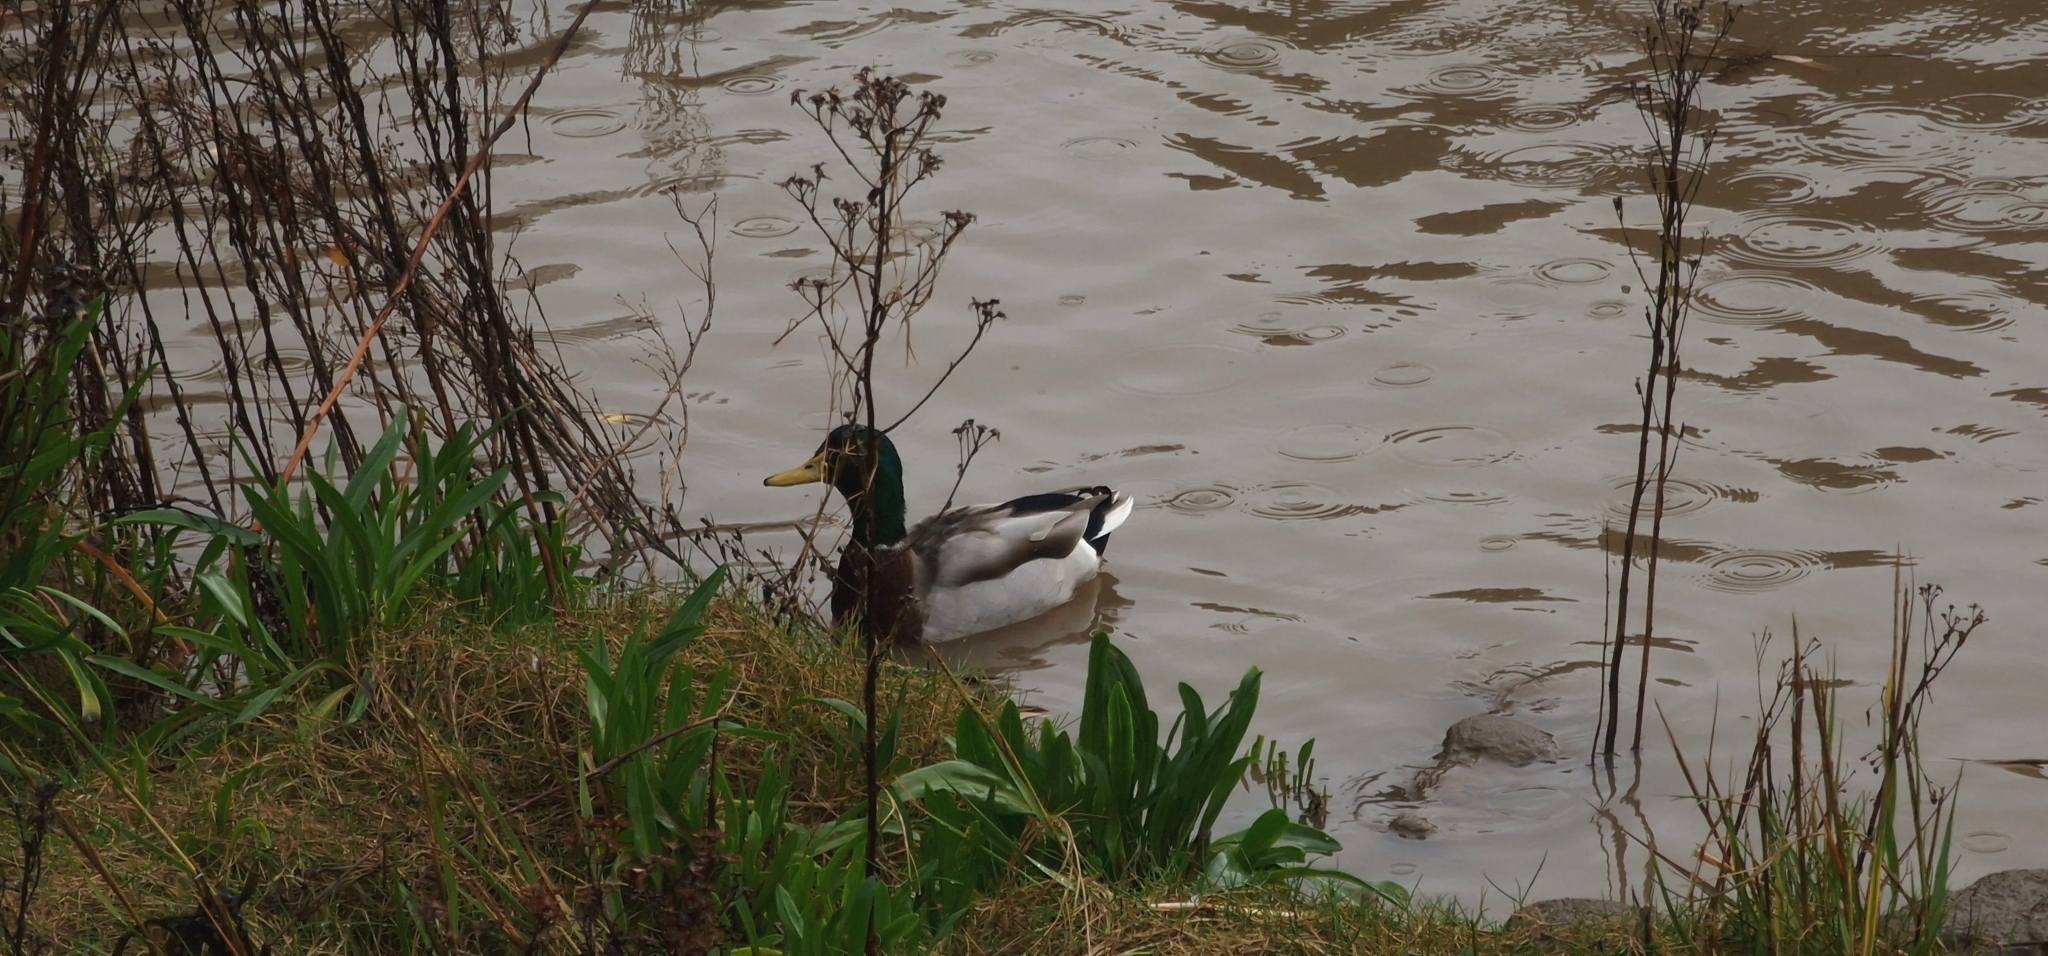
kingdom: Animalia
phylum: Chordata
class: Aves
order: Anseriformes
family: Anatidae
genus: Anas
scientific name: Anas platyrhynchos
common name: Mallard
